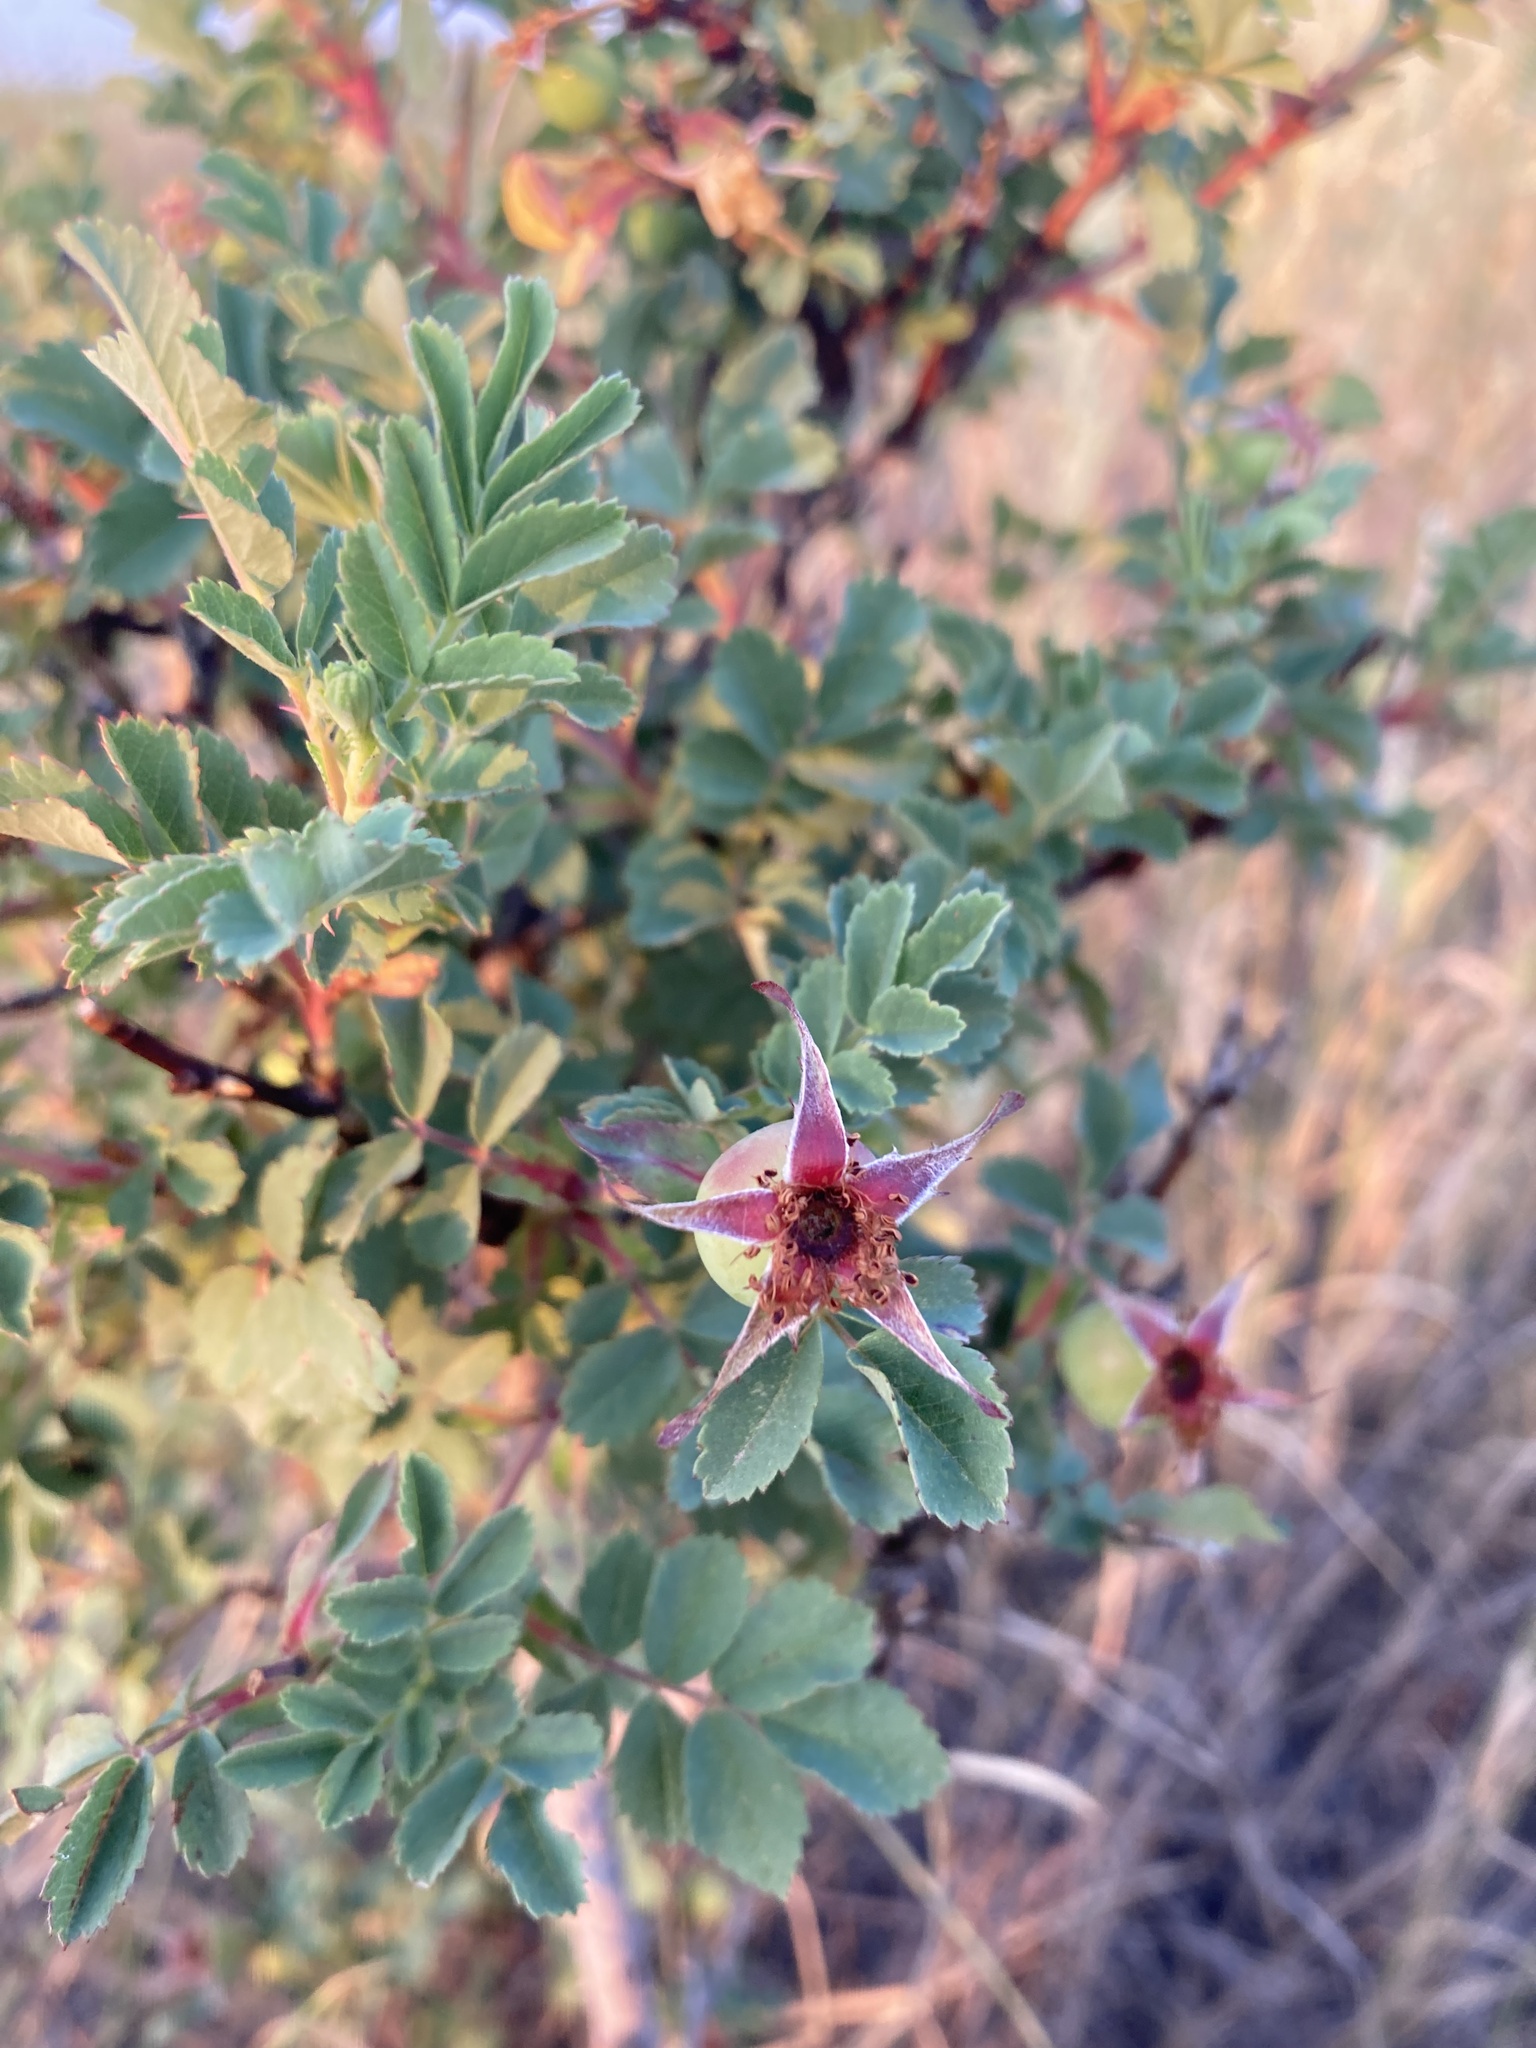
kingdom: Plantae
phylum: Tracheophyta
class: Magnoliopsida
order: Rosales
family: Rosaceae
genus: Rosa
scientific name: Rosa woodsii
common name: Woods's rose
